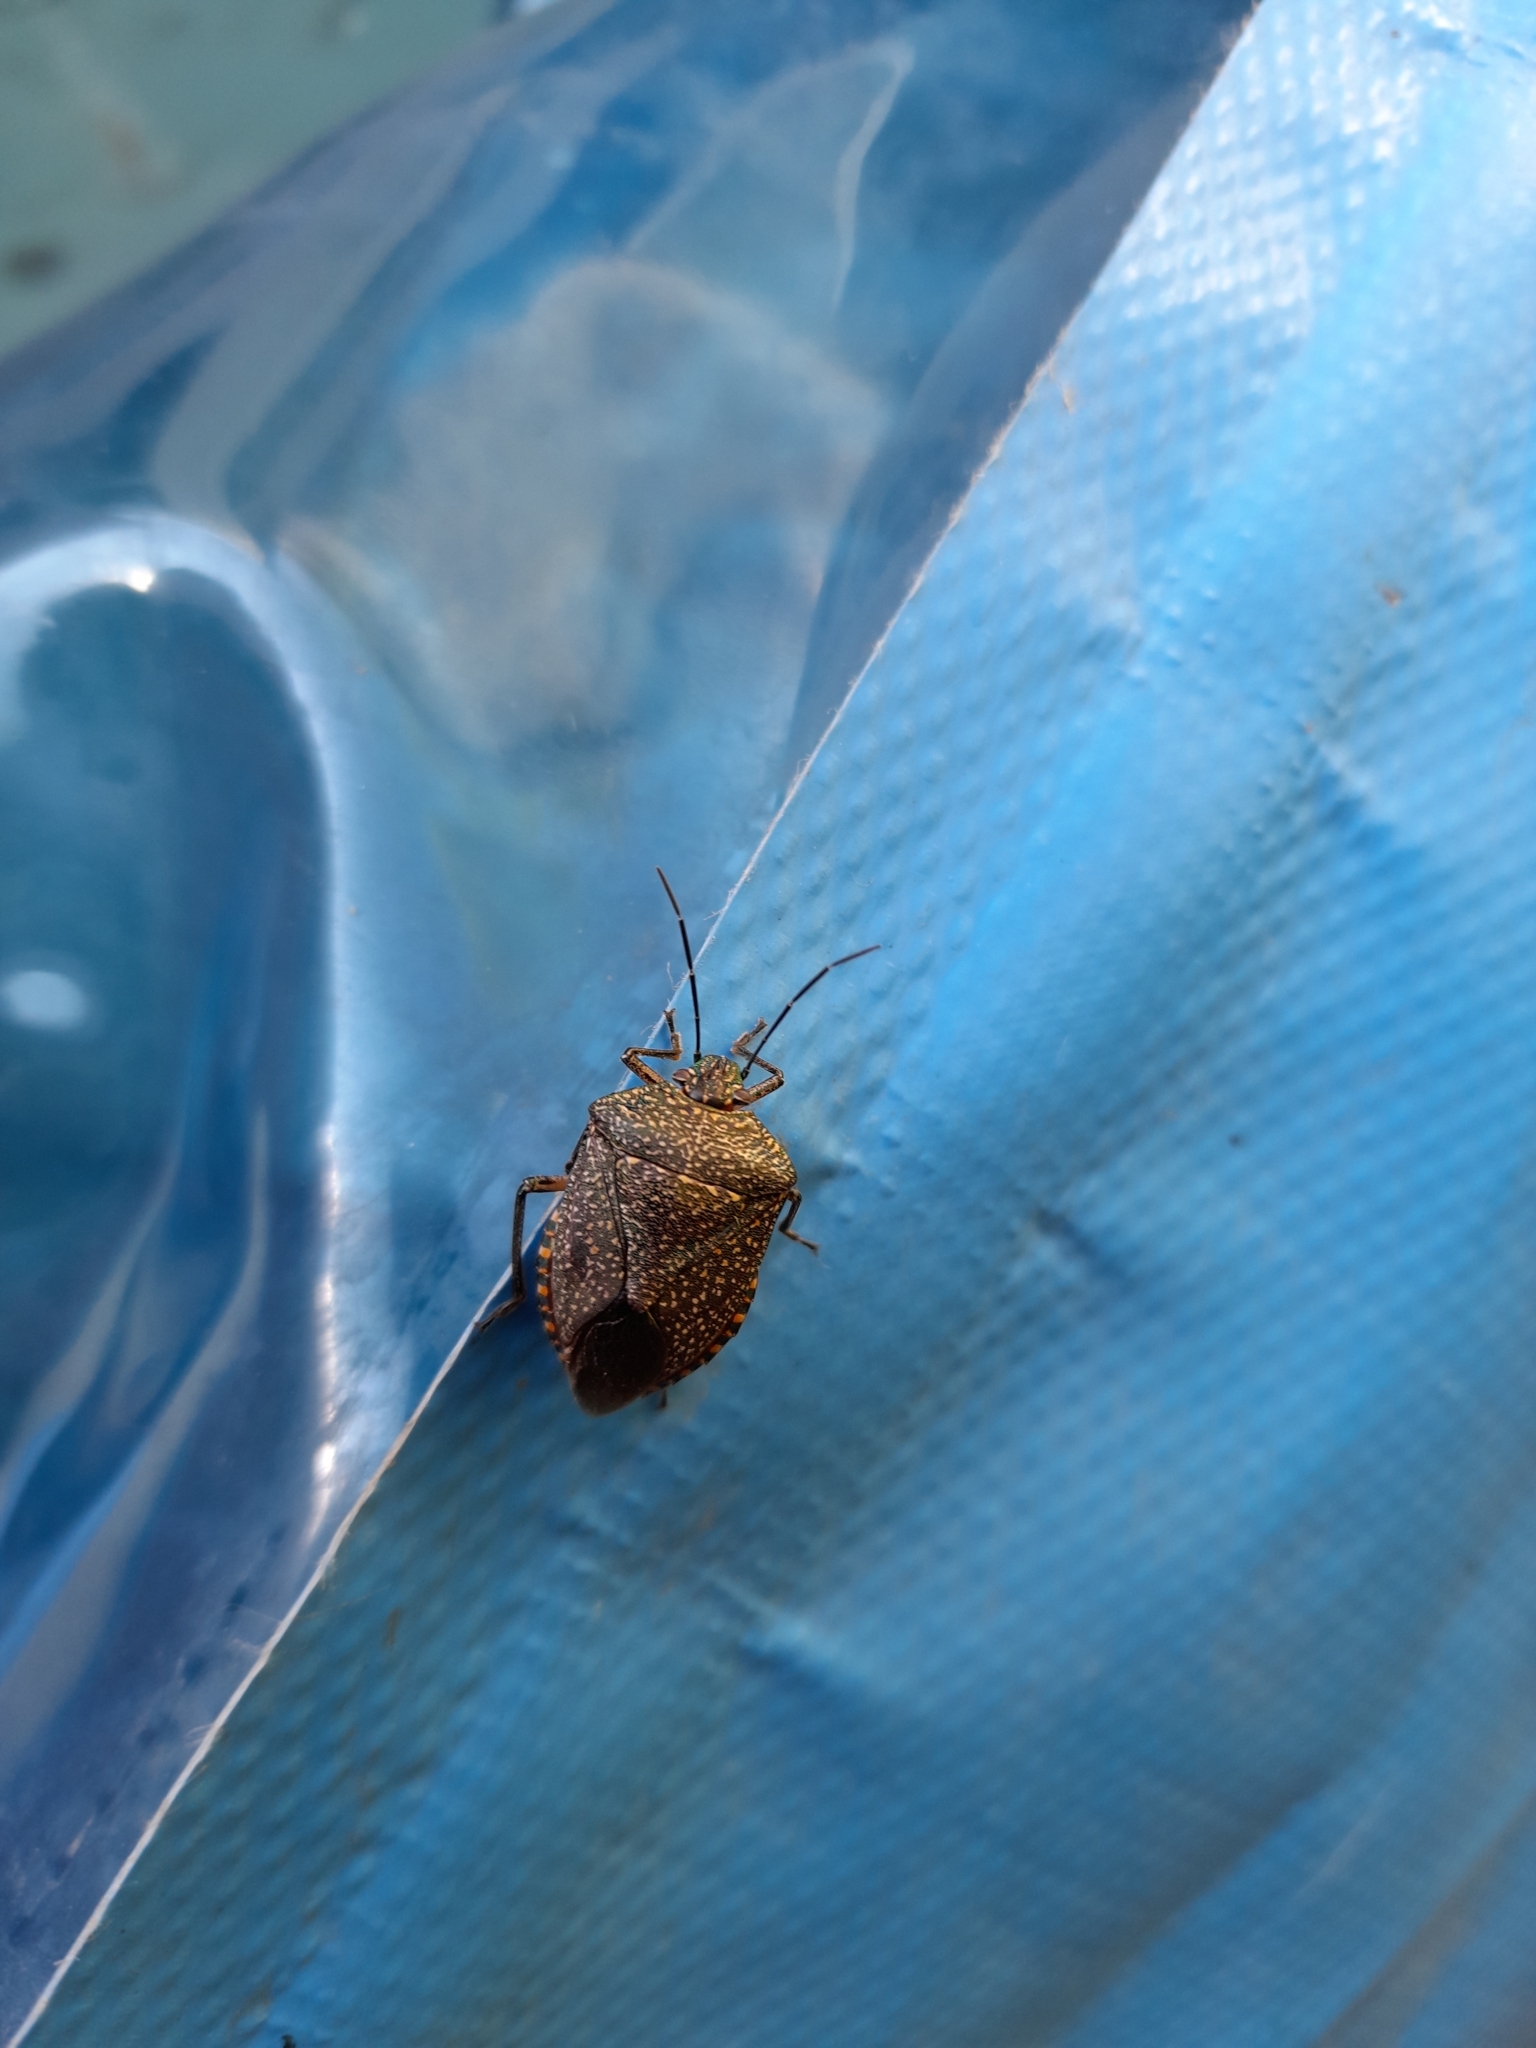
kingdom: Animalia
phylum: Arthropoda
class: Insecta
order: Hemiptera
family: Pentatomidae
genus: Pellaea
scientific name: Pellaea stictica
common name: Stink bug
